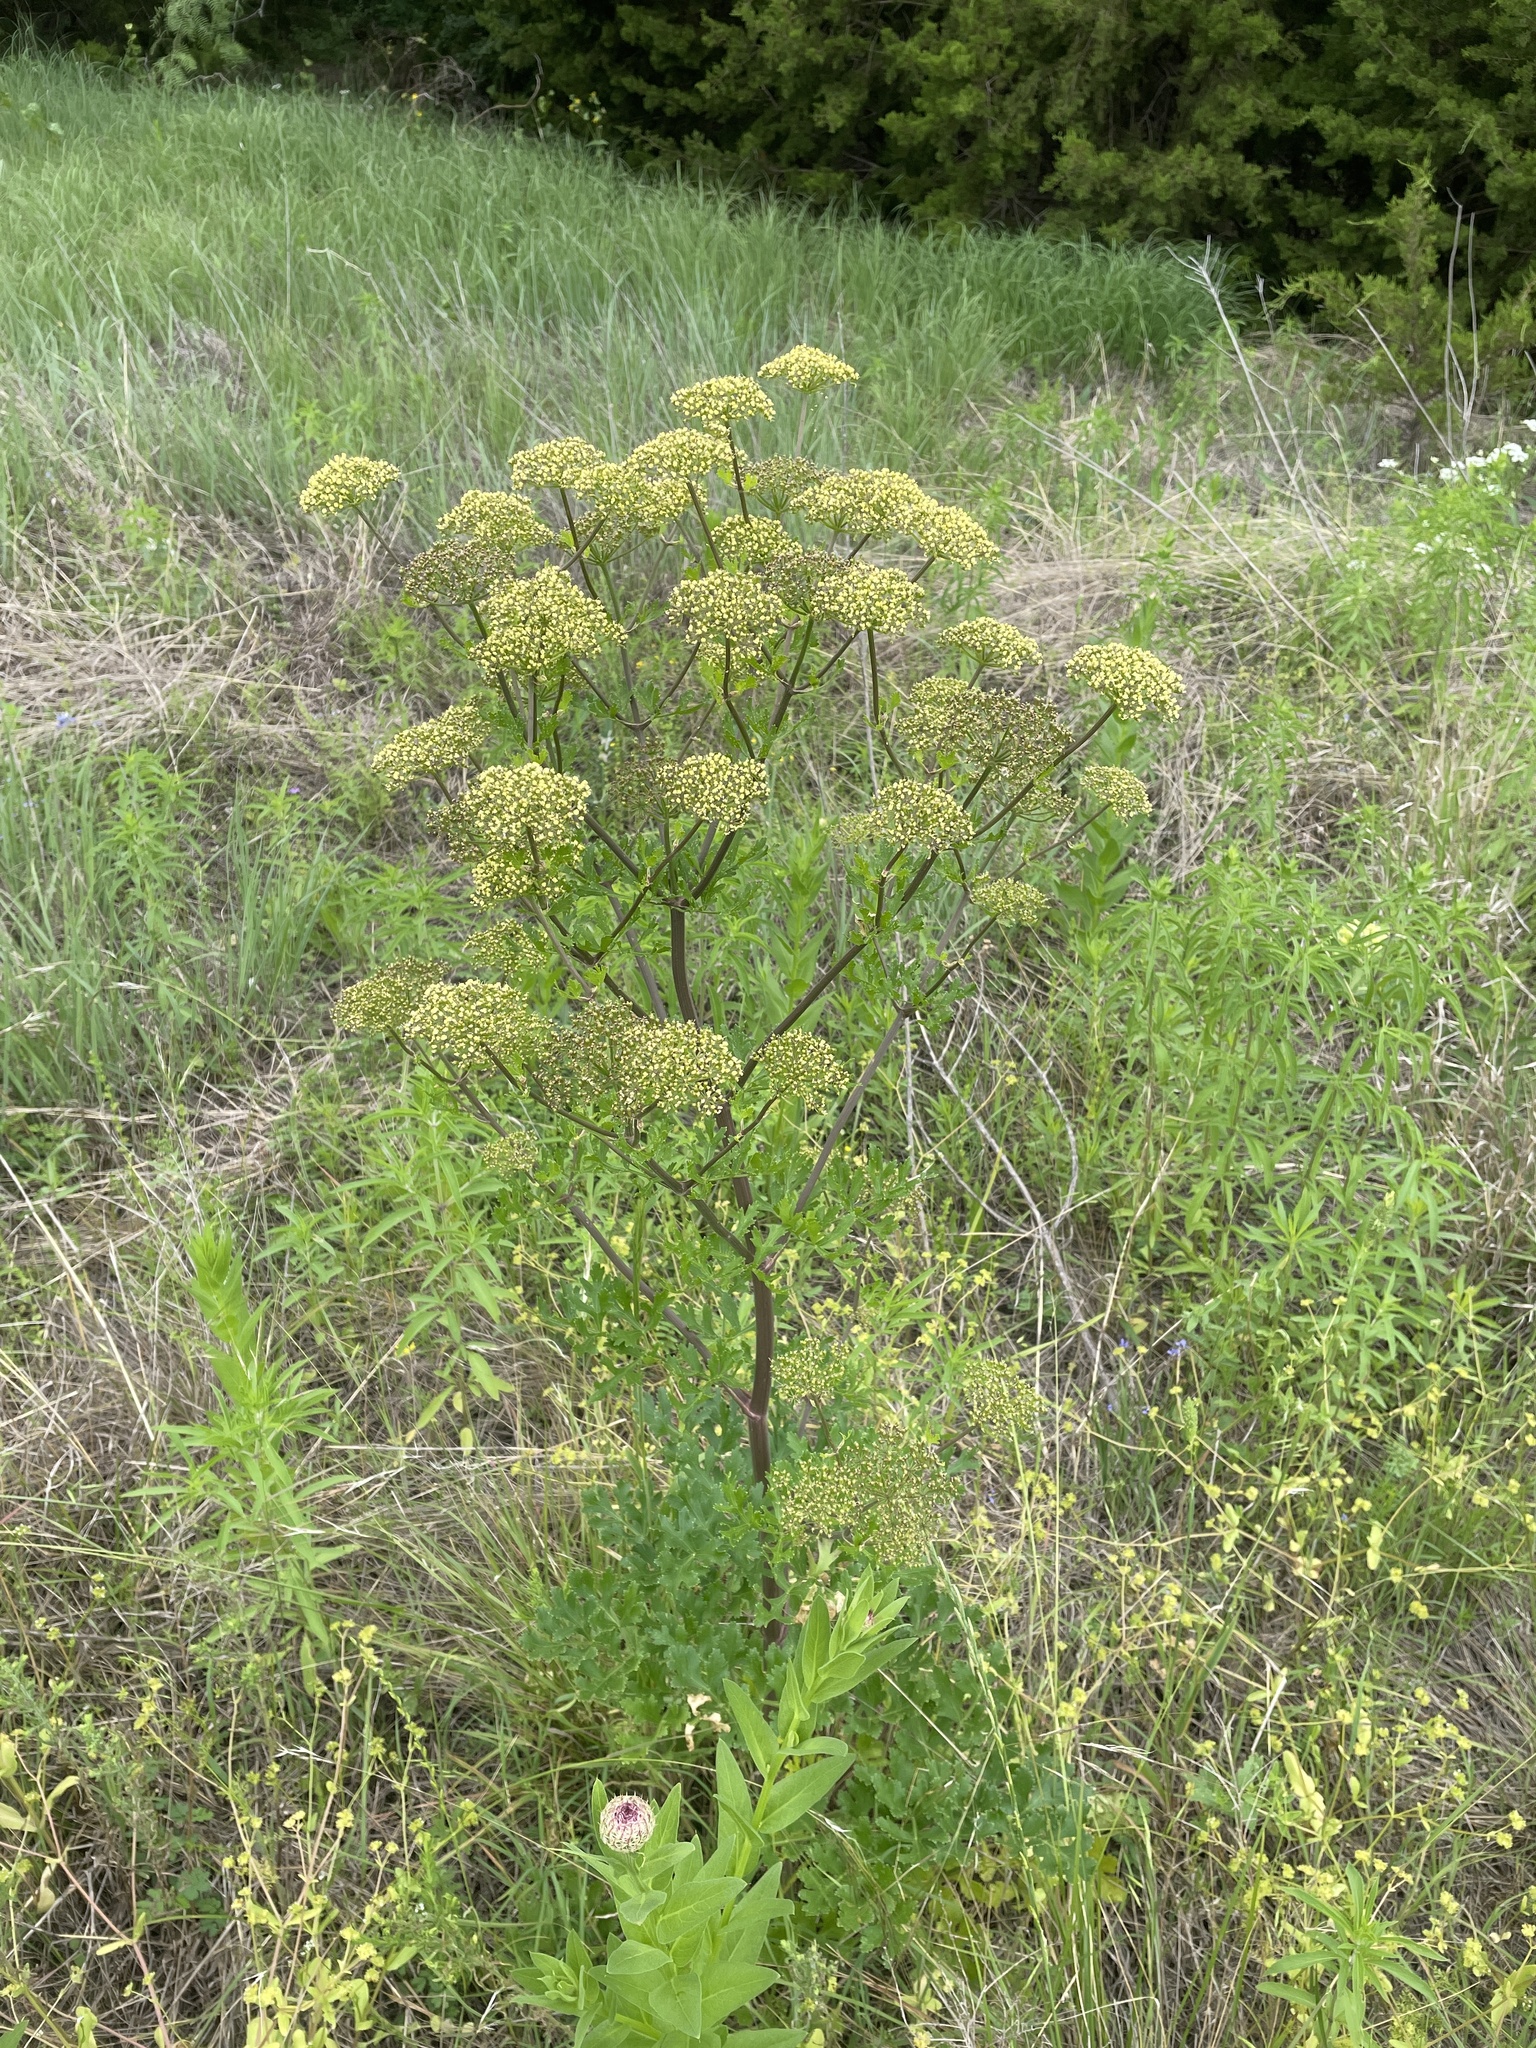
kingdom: Plantae
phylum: Tracheophyta
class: Magnoliopsida
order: Apiales
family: Apiaceae
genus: Polytaenia
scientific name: Polytaenia texana
